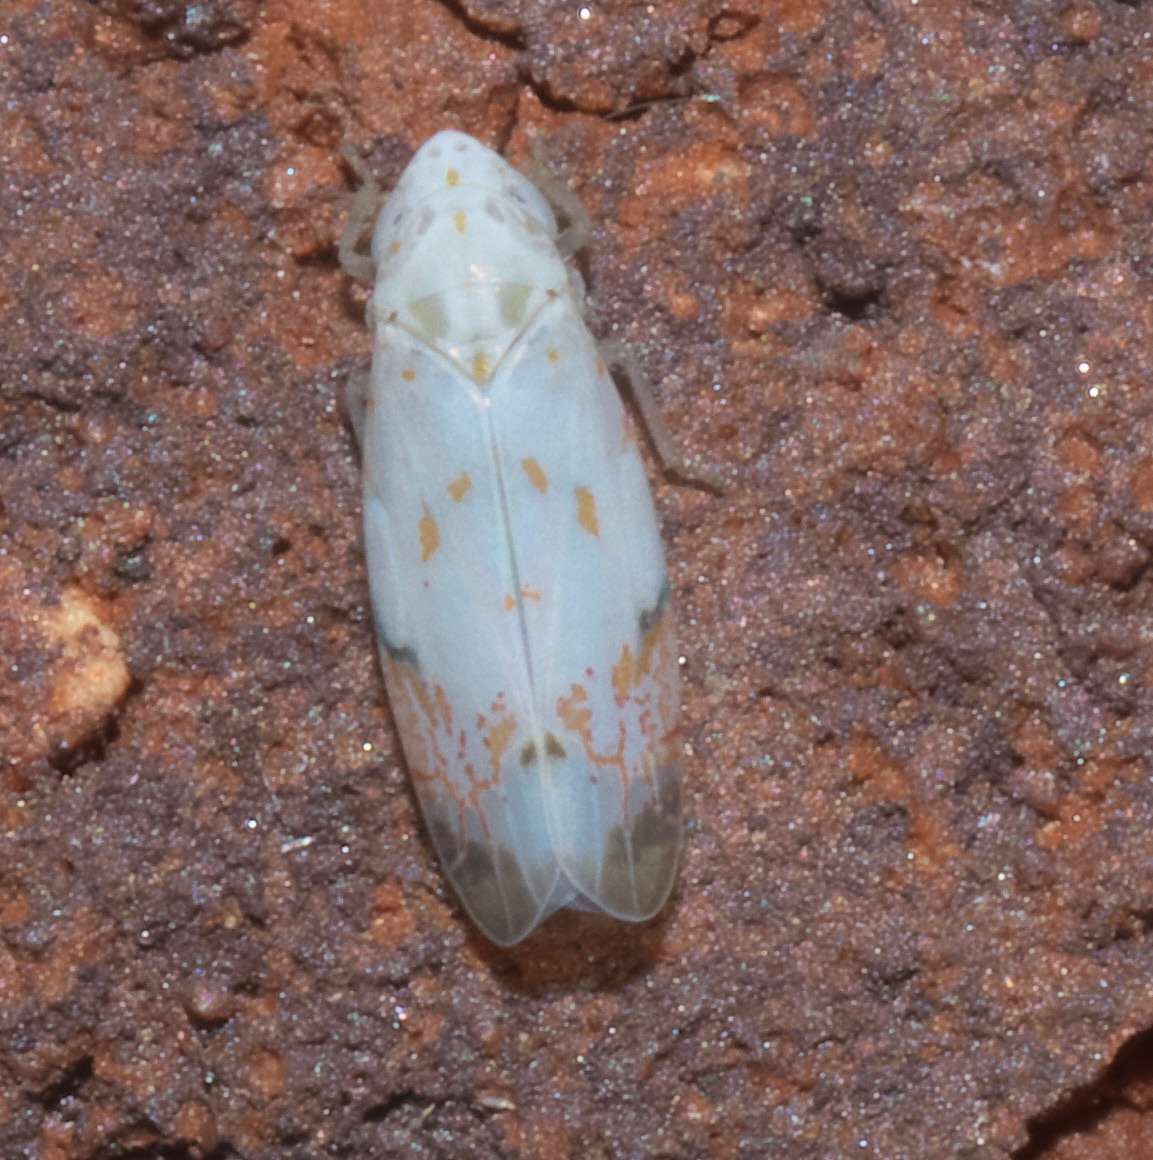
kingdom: Animalia
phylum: Arthropoda
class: Insecta
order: Hemiptera
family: Cicadellidae
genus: Eratoneura
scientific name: Eratoneura stephensoni
